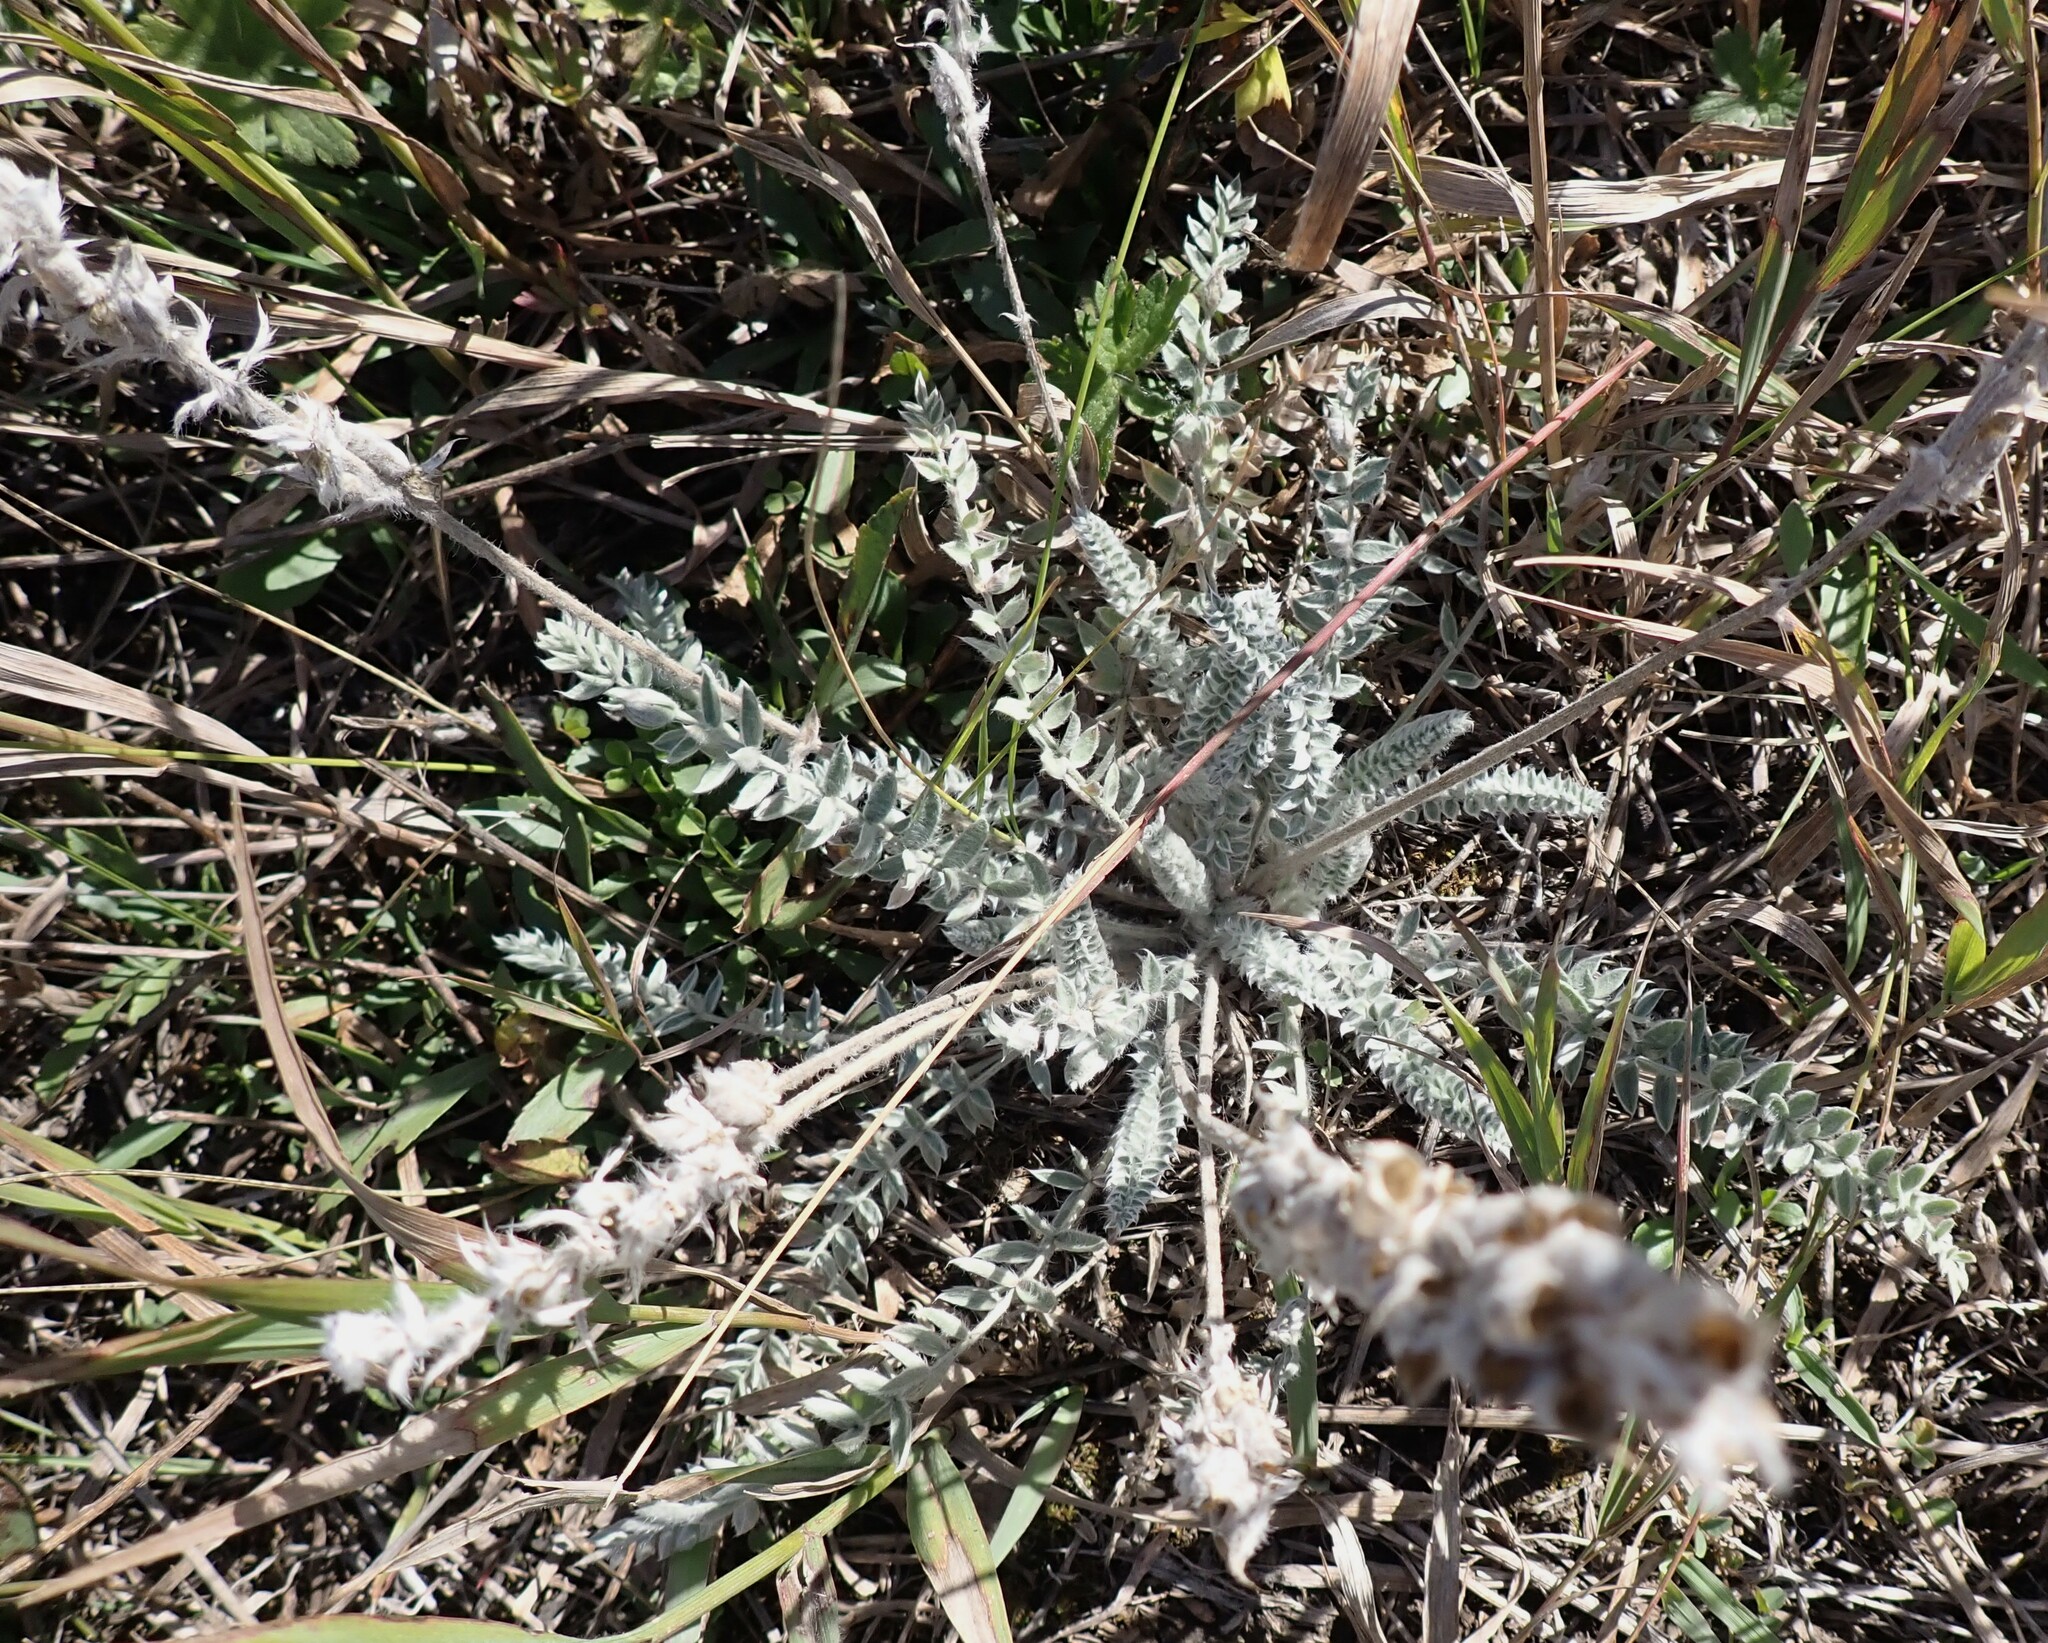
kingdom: Plantae
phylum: Tracheophyta
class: Magnoliopsida
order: Fabales
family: Fabaceae
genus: Oxytropis
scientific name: Oxytropis splendens
